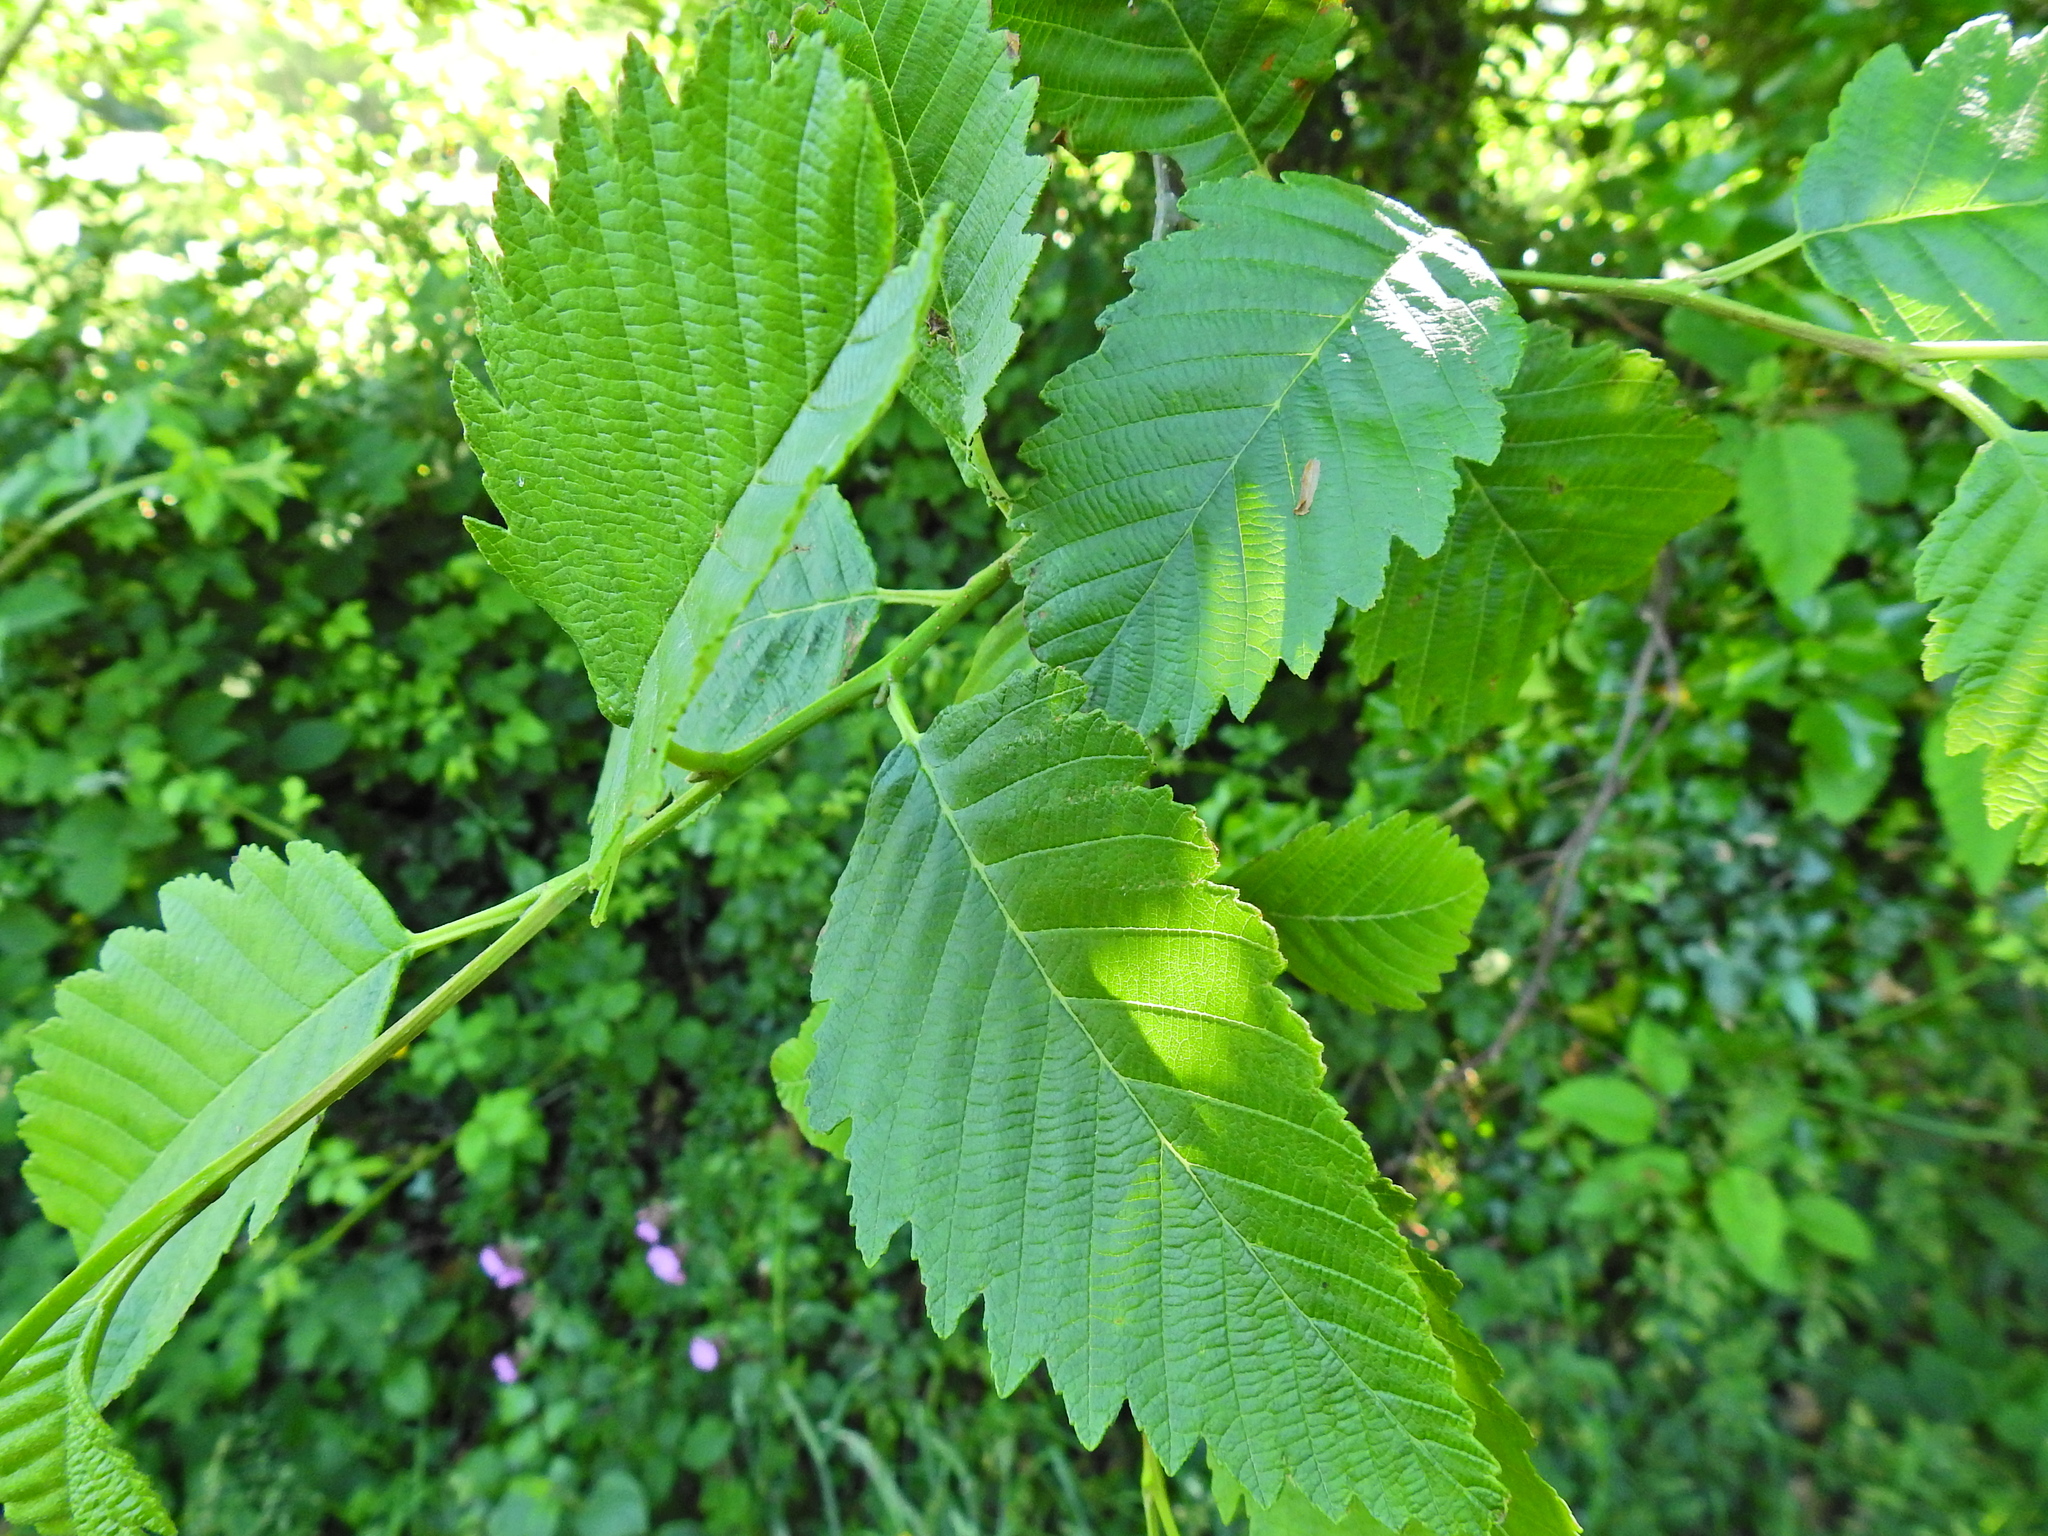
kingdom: Plantae
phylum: Tracheophyta
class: Magnoliopsida
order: Fagales
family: Betulaceae
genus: Alnus
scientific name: Alnus incana
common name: Grey alder
